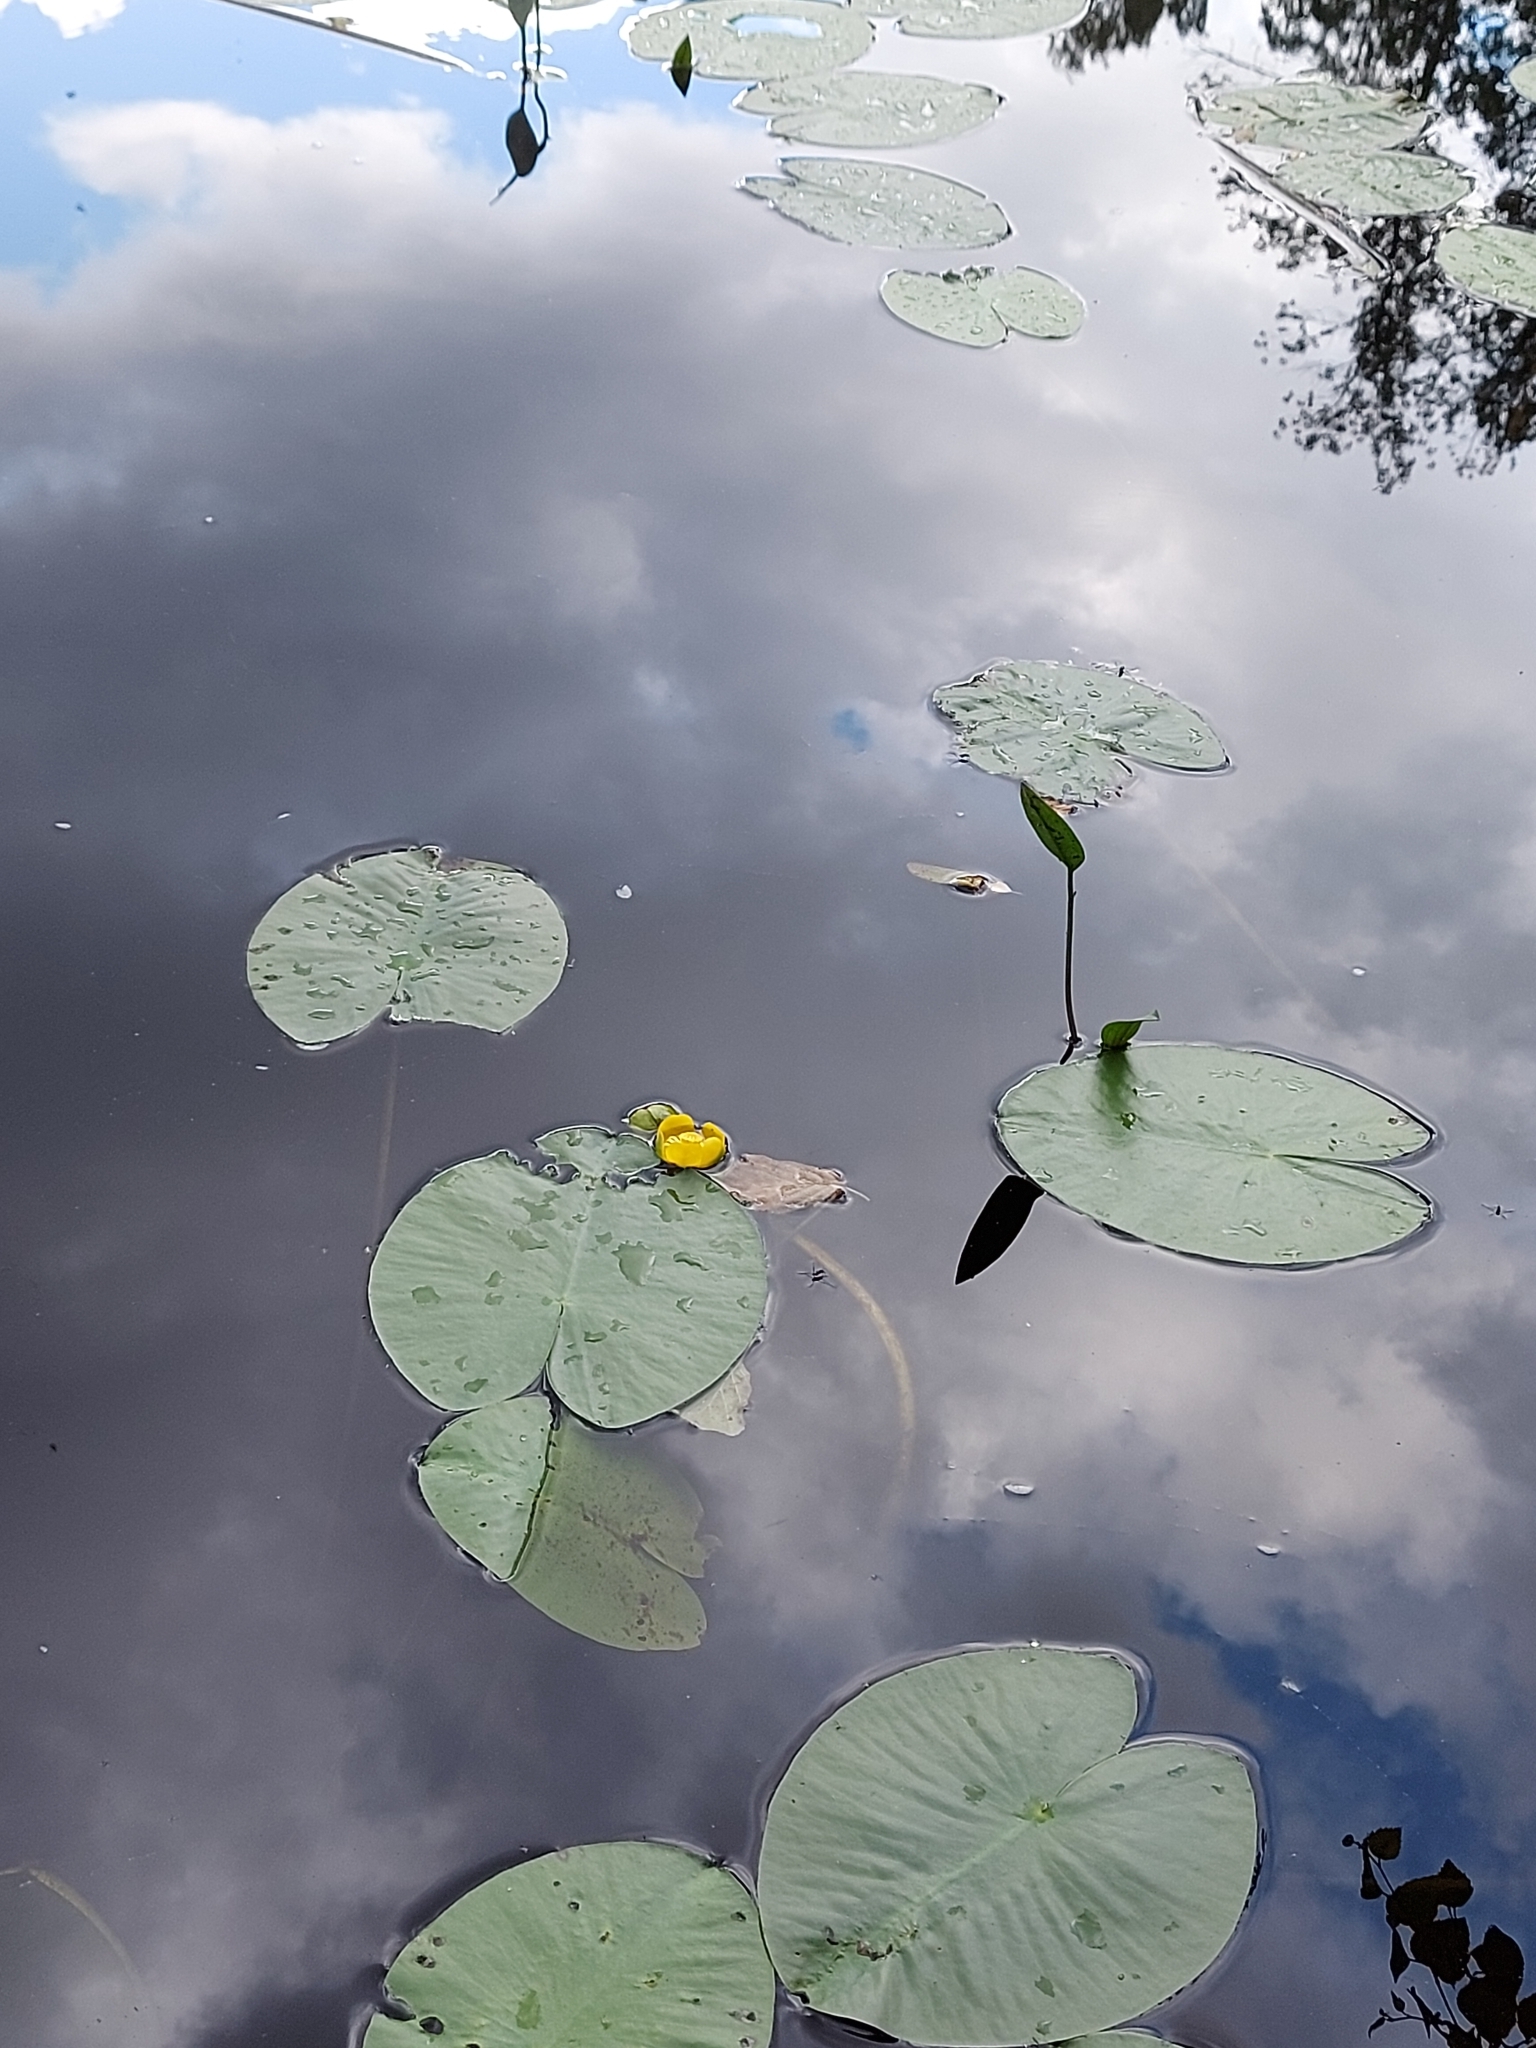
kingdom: Plantae
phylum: Tracheophyta
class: Magnoliopsida
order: Nymphaeales
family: Nymphaeaceae
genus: Nuphar
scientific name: Nuphar lutea
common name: Yellow water-lily
